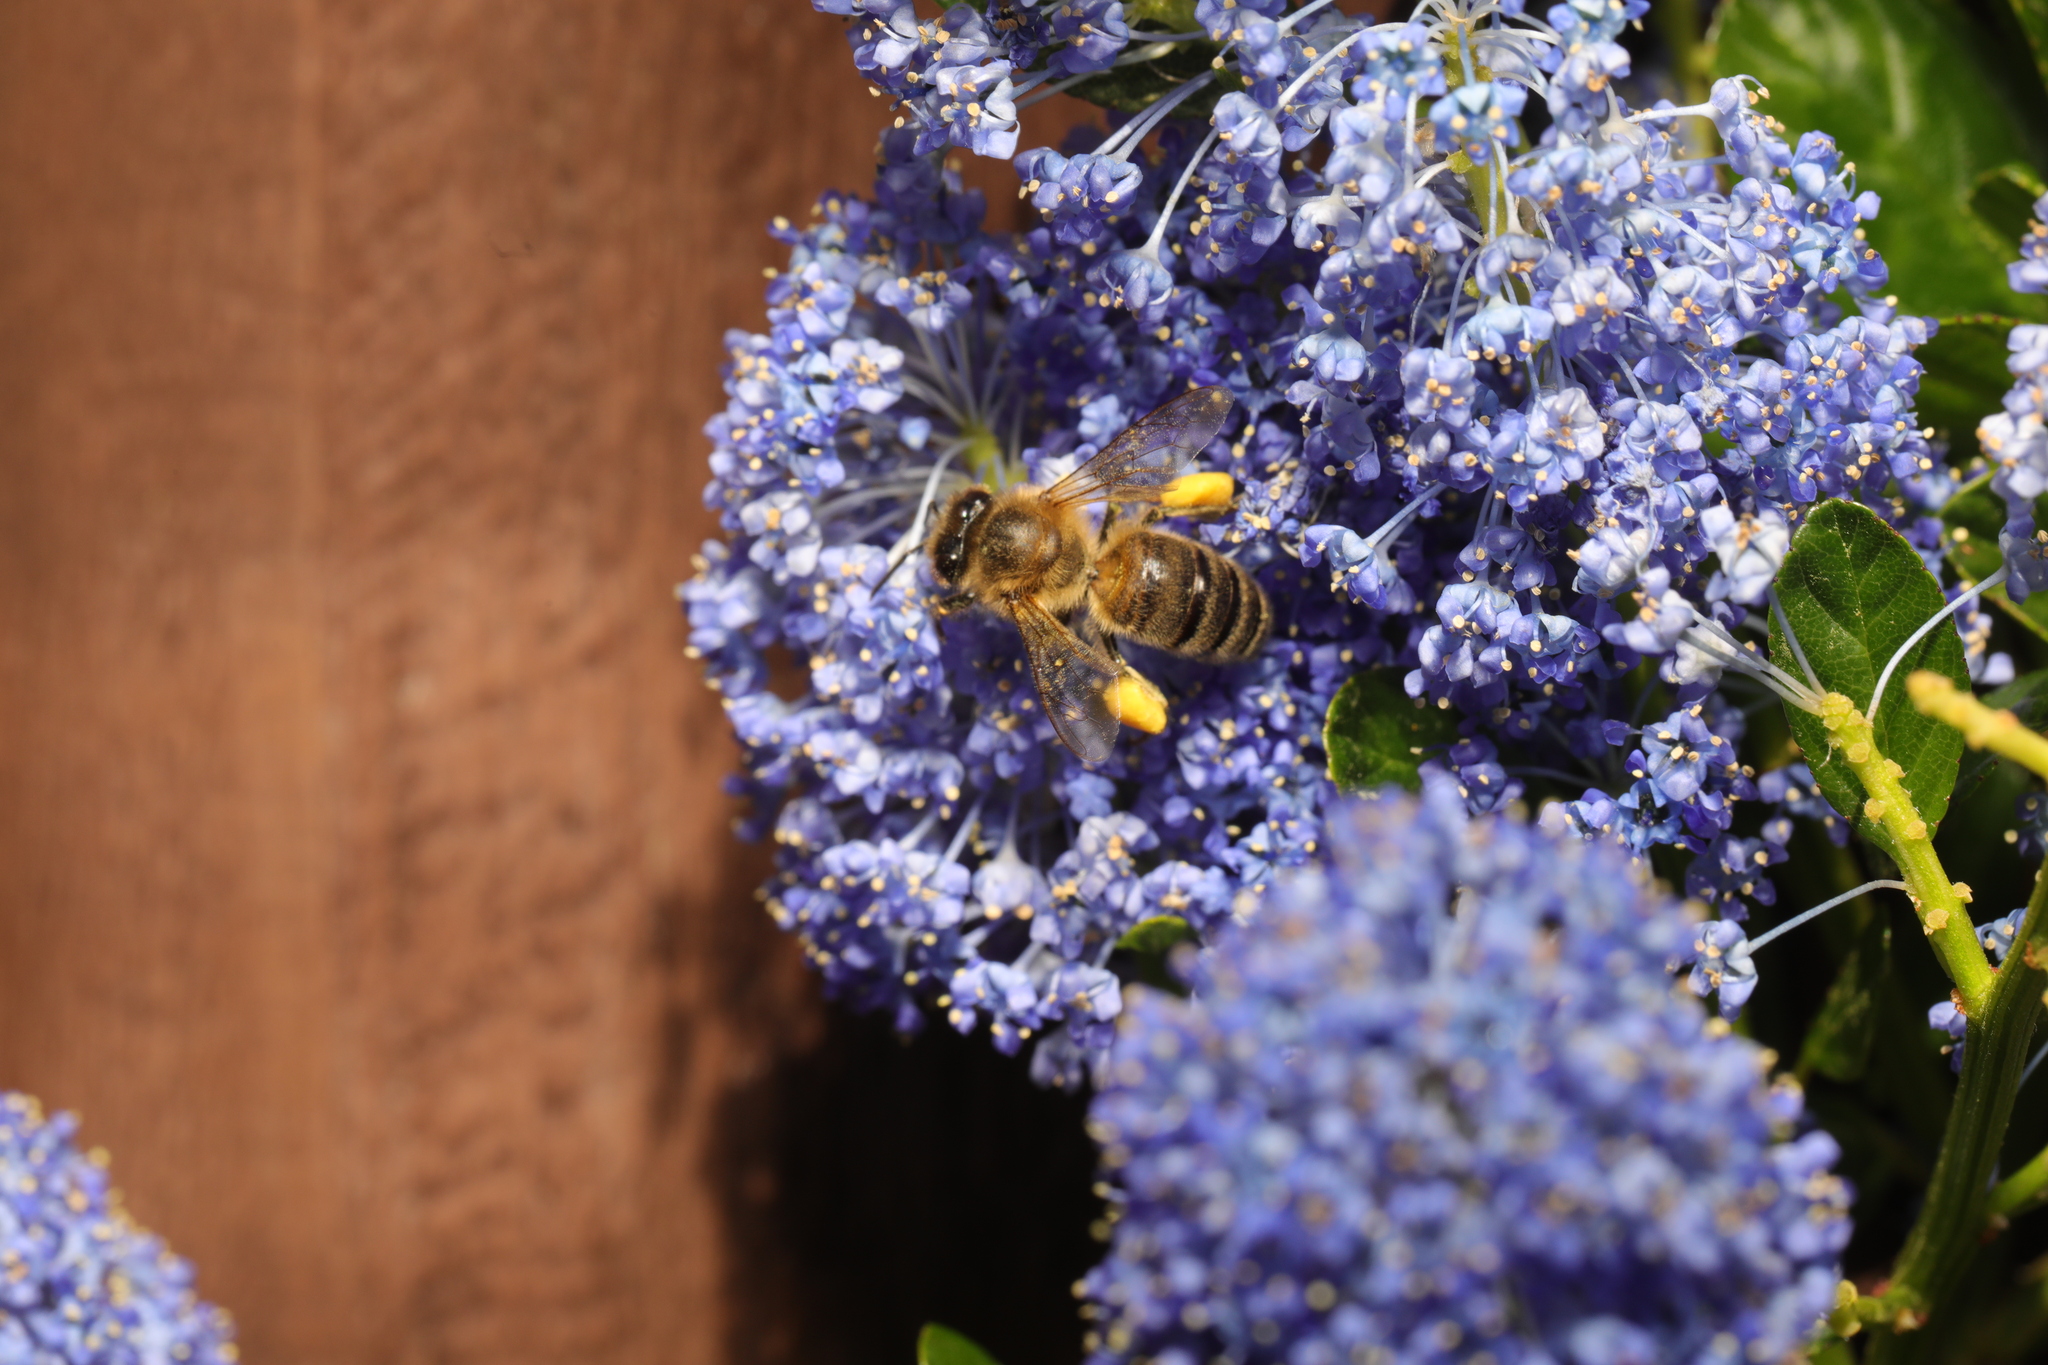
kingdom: Animalia
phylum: Arthropoda
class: Insecta
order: Hymenoptera
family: Apidae
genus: Apis
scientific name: Apis mellifera
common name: Honey bee
